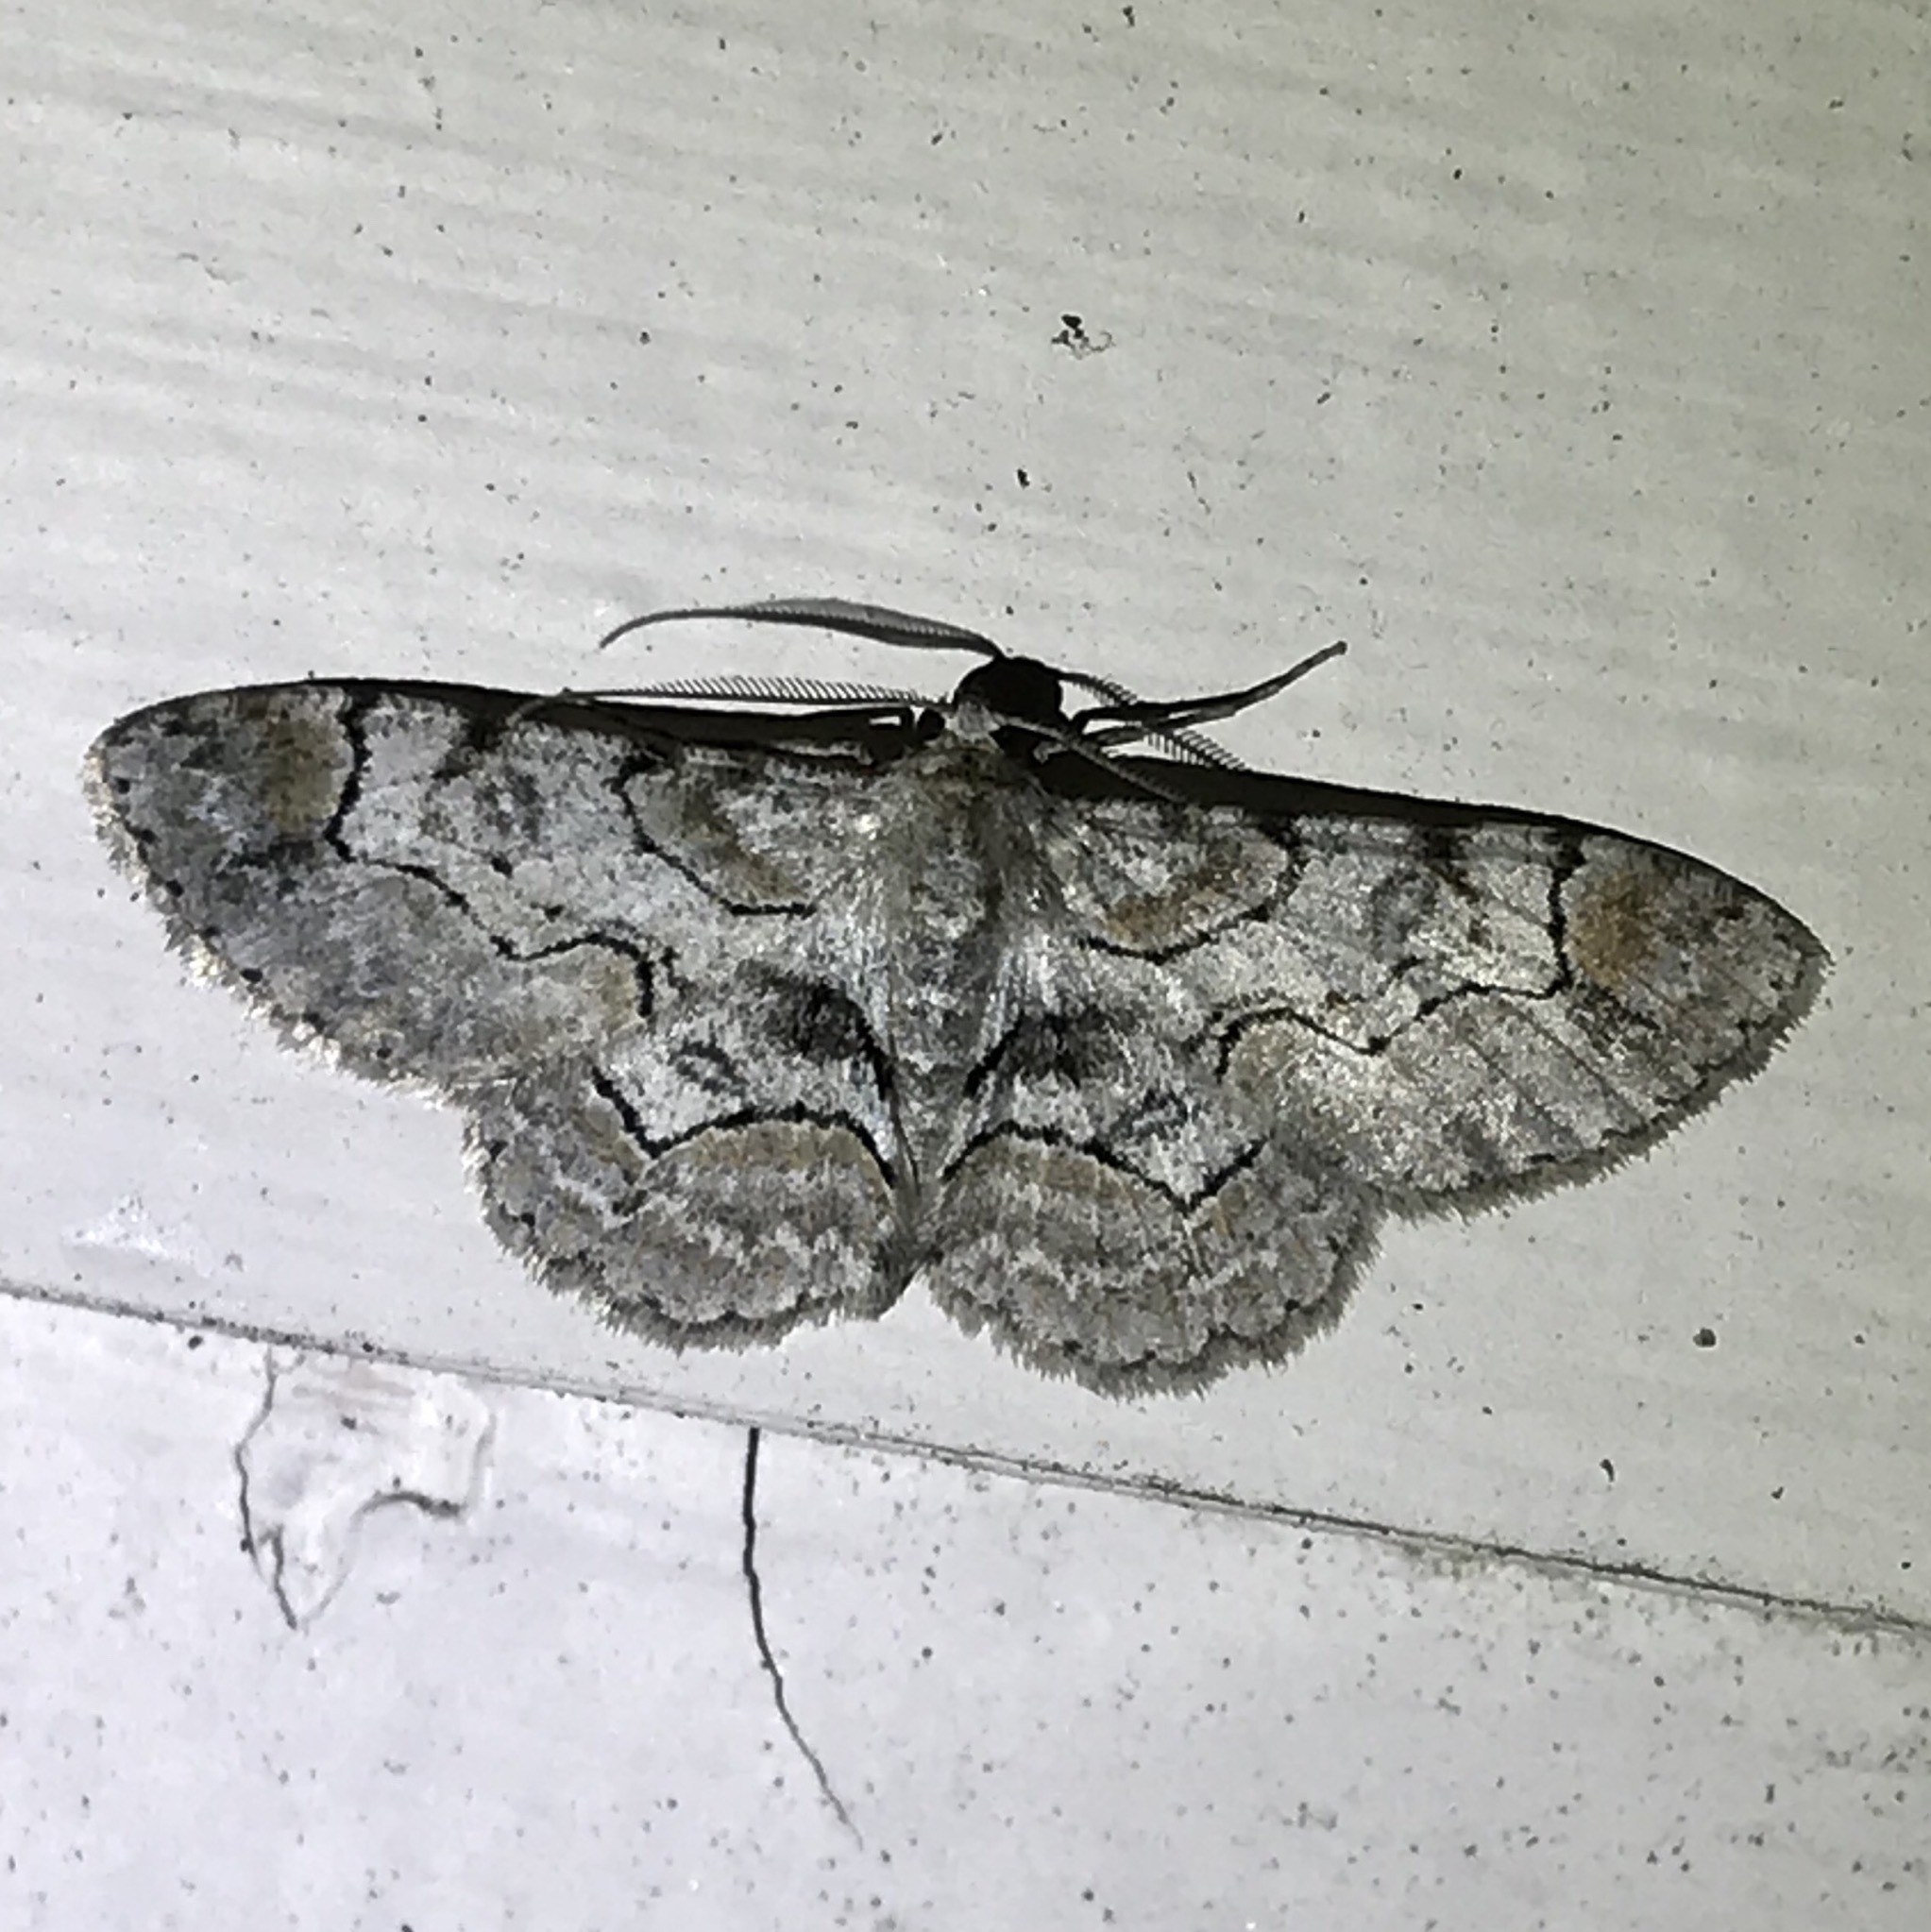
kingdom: Animalia
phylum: Arthropoda
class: Insecta
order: Lepidoptera
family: Geometridae
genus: Iridopsis
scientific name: Iridopsis larvaria
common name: Bent-line gray
